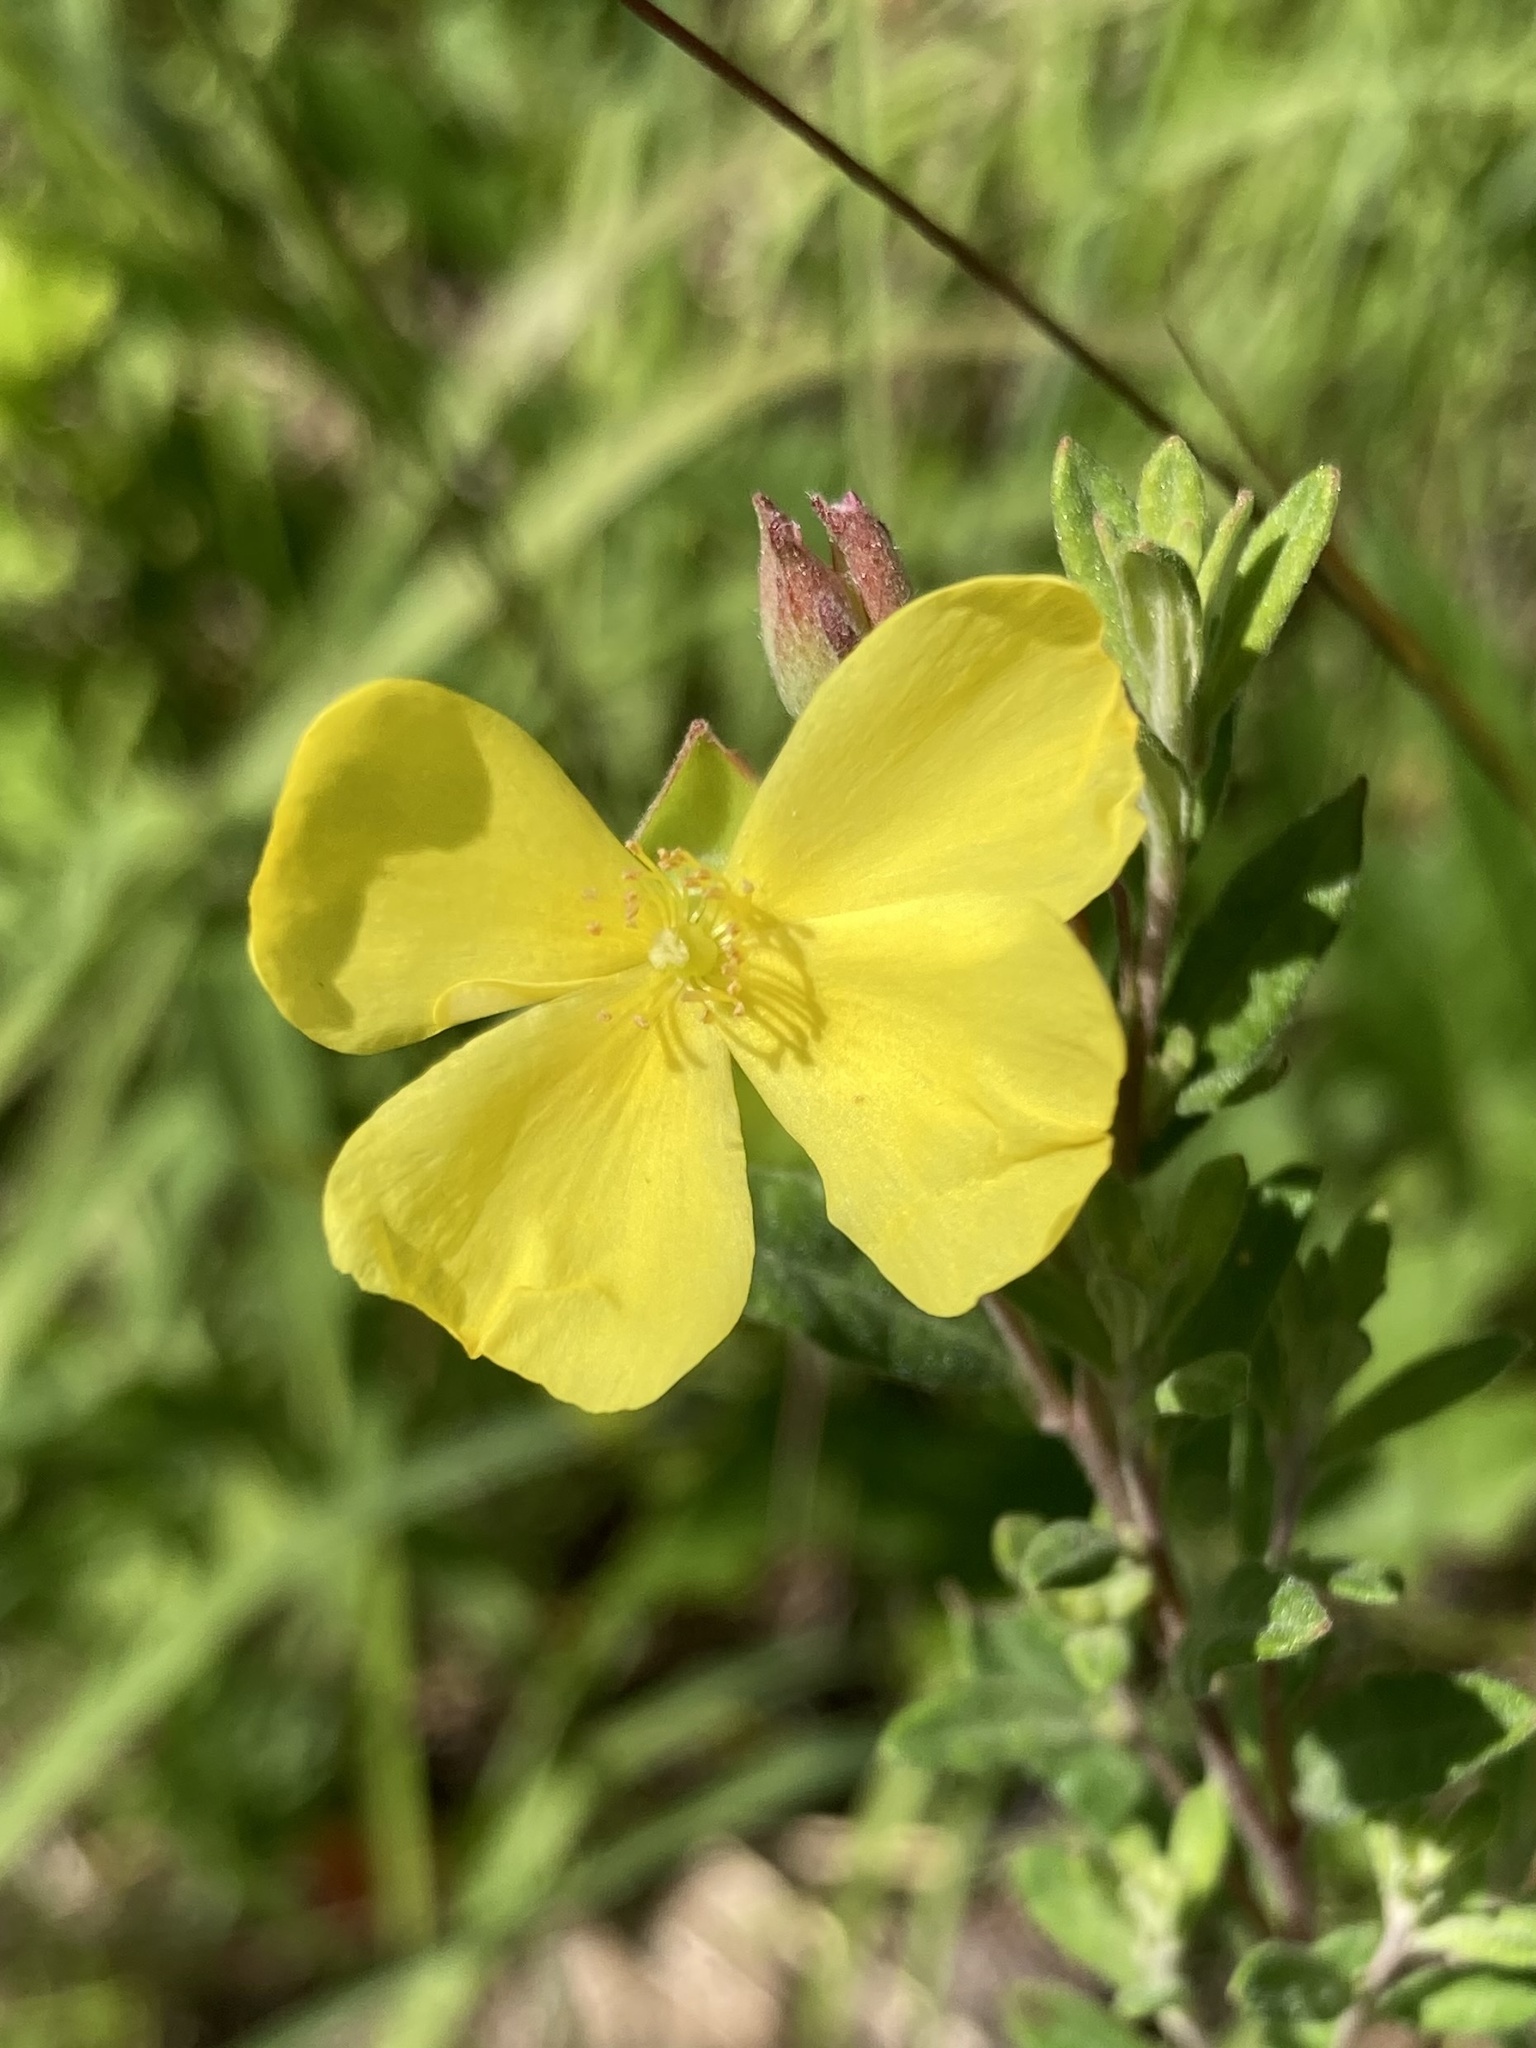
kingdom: Plantae
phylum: Tracheophyta
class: Magnoliopsida
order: Malvales
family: Cistaceae
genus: Crocanthemum
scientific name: Crocanthemum canadense
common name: Canada frostweed
